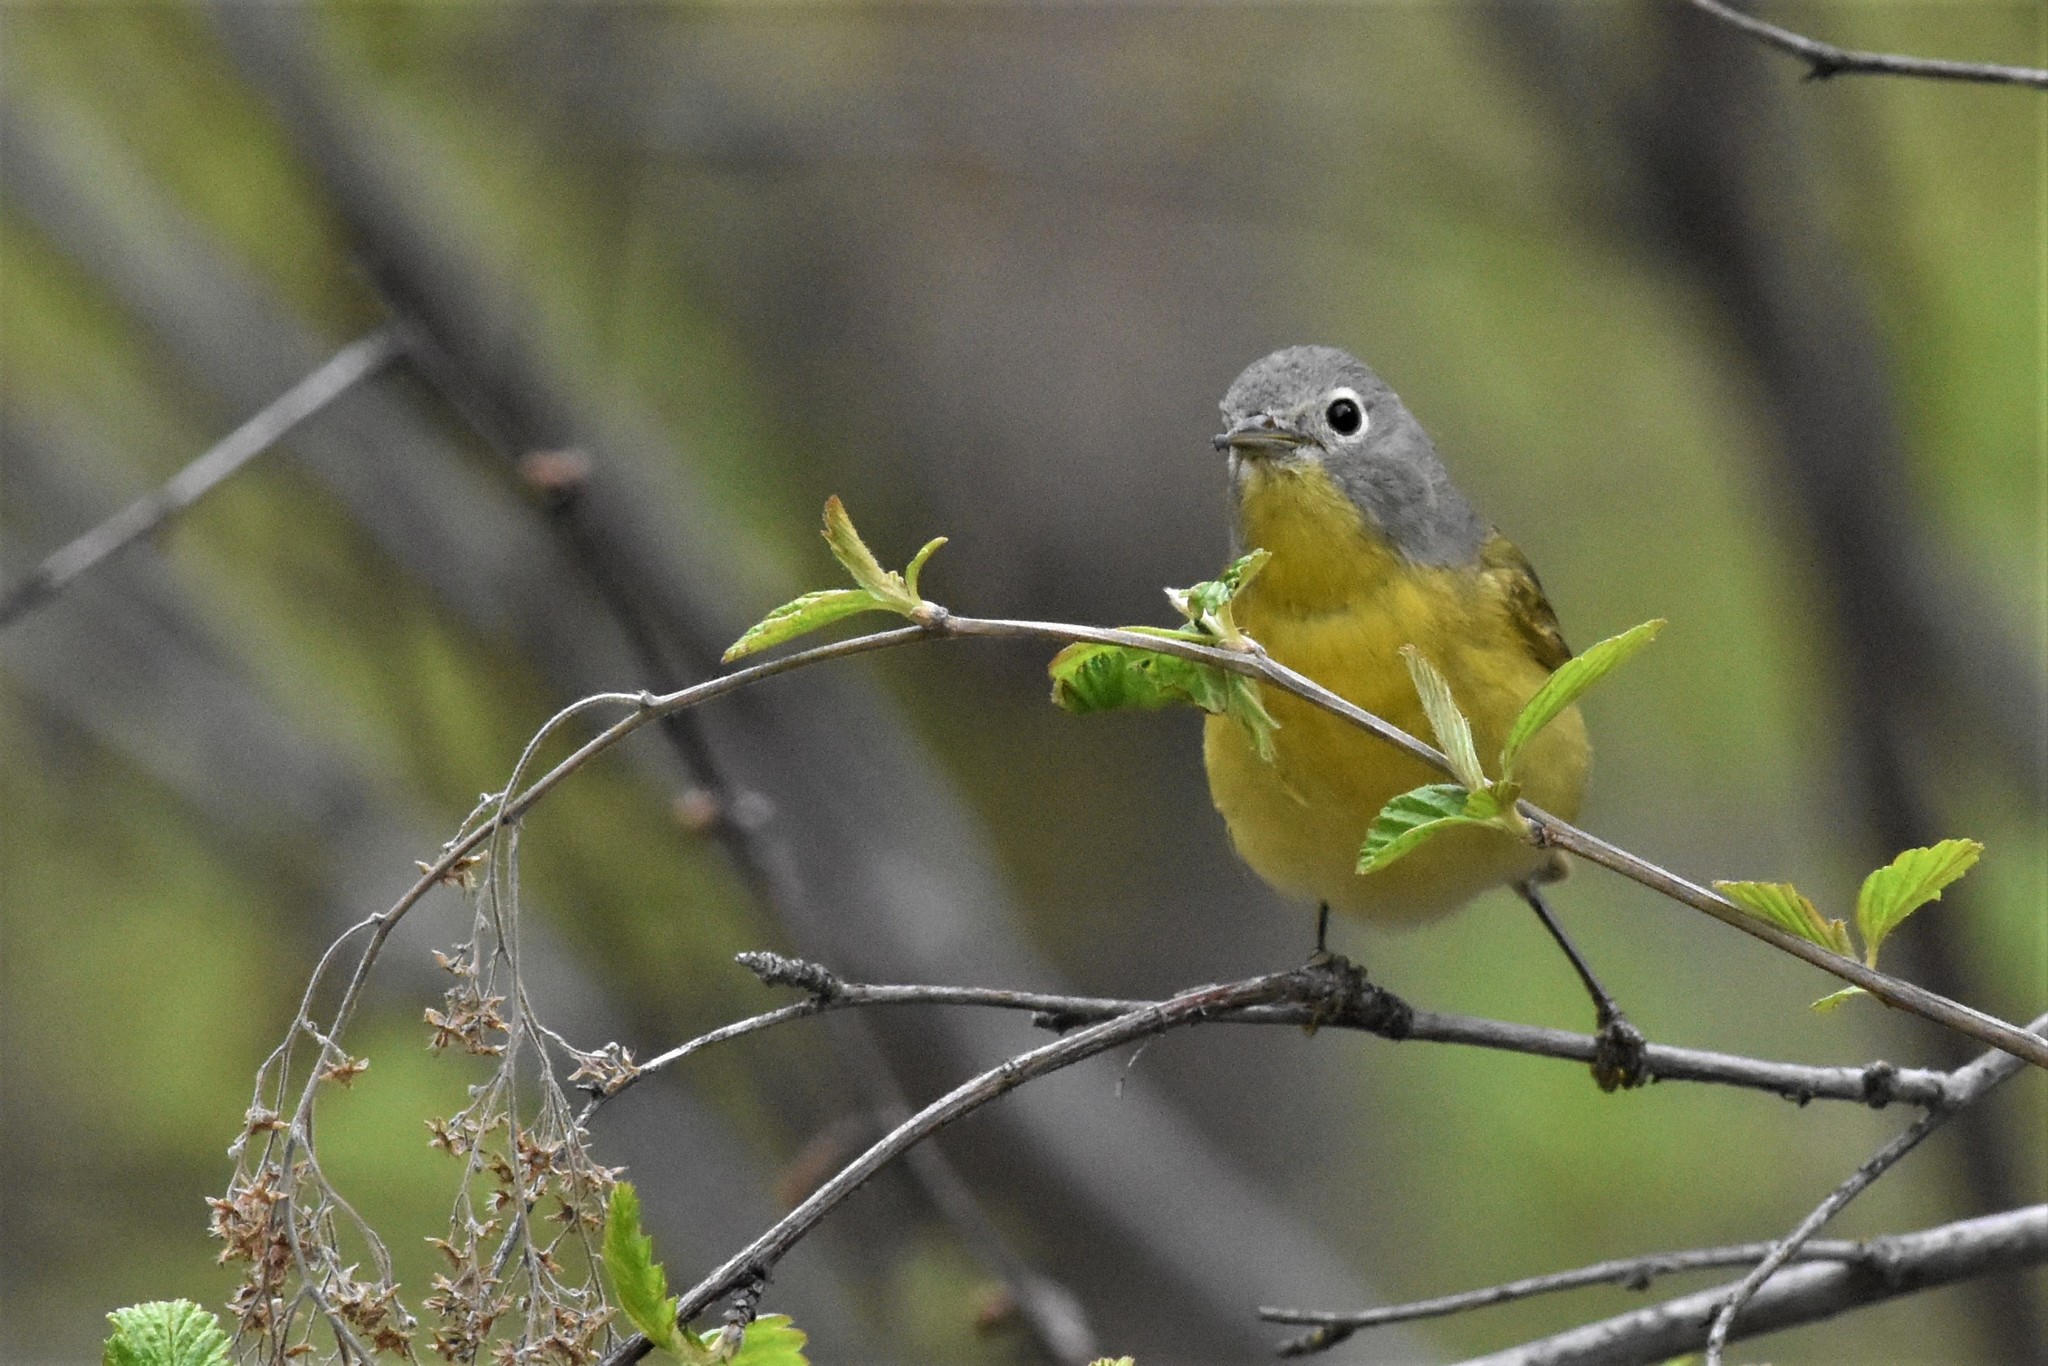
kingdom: Animalia
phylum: Chordata
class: Aves
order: Passeriformes
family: Parulidae
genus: Leiothlypis
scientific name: Leiothlypis ruficapilla
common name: Nashville warbler
